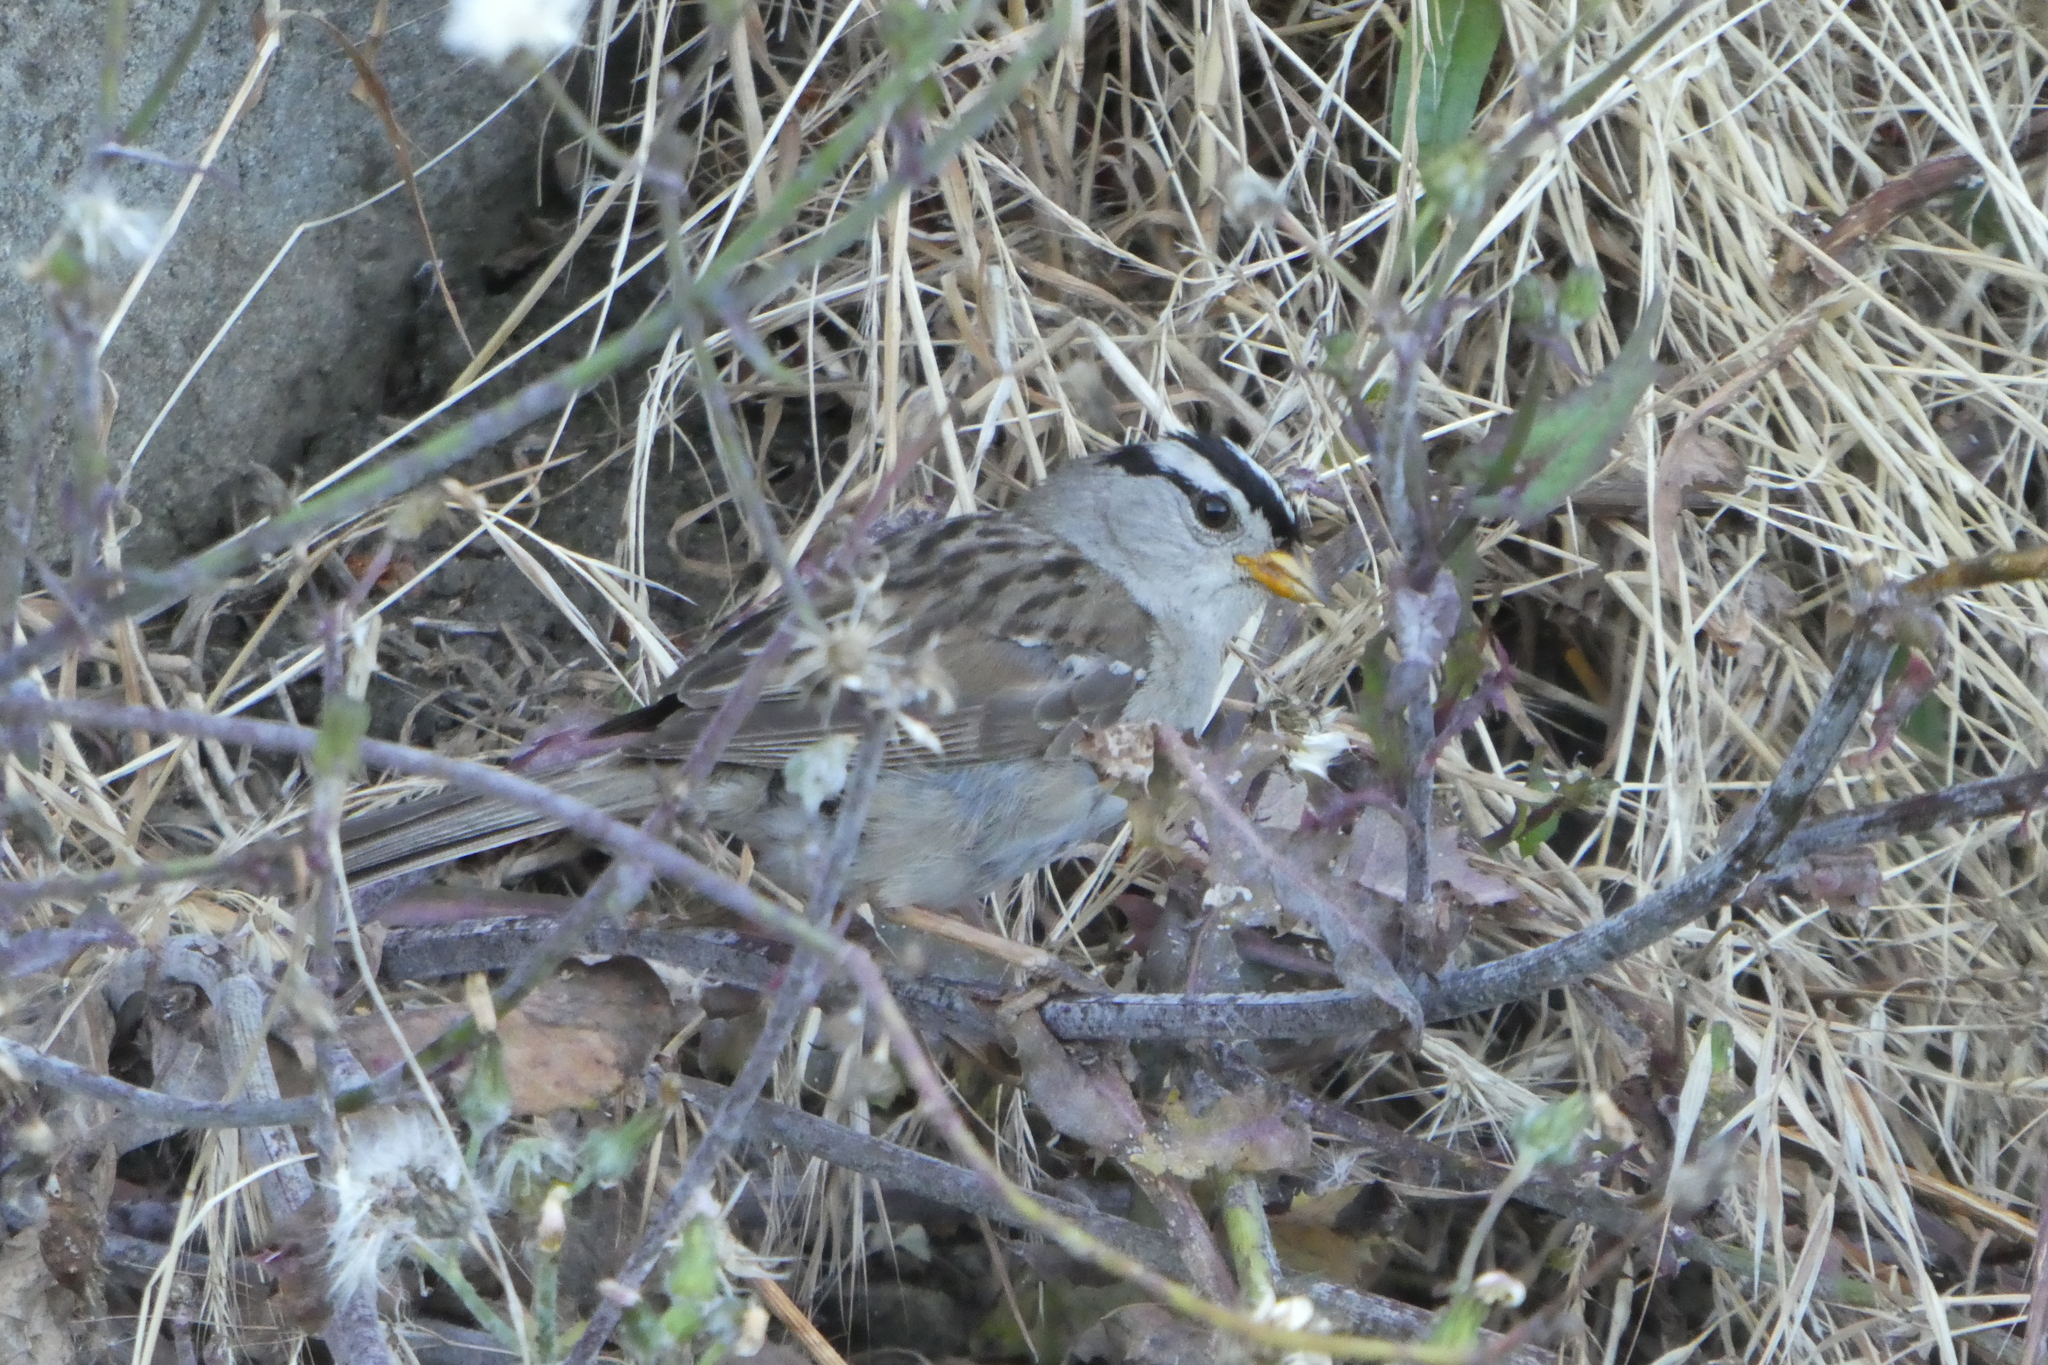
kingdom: Animalia
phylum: Chordata
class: Aves
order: Passeriformes
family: Passerellidae
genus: Zonotrichia
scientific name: Zonotrichia leucophrys
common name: White-crowned sparrow
